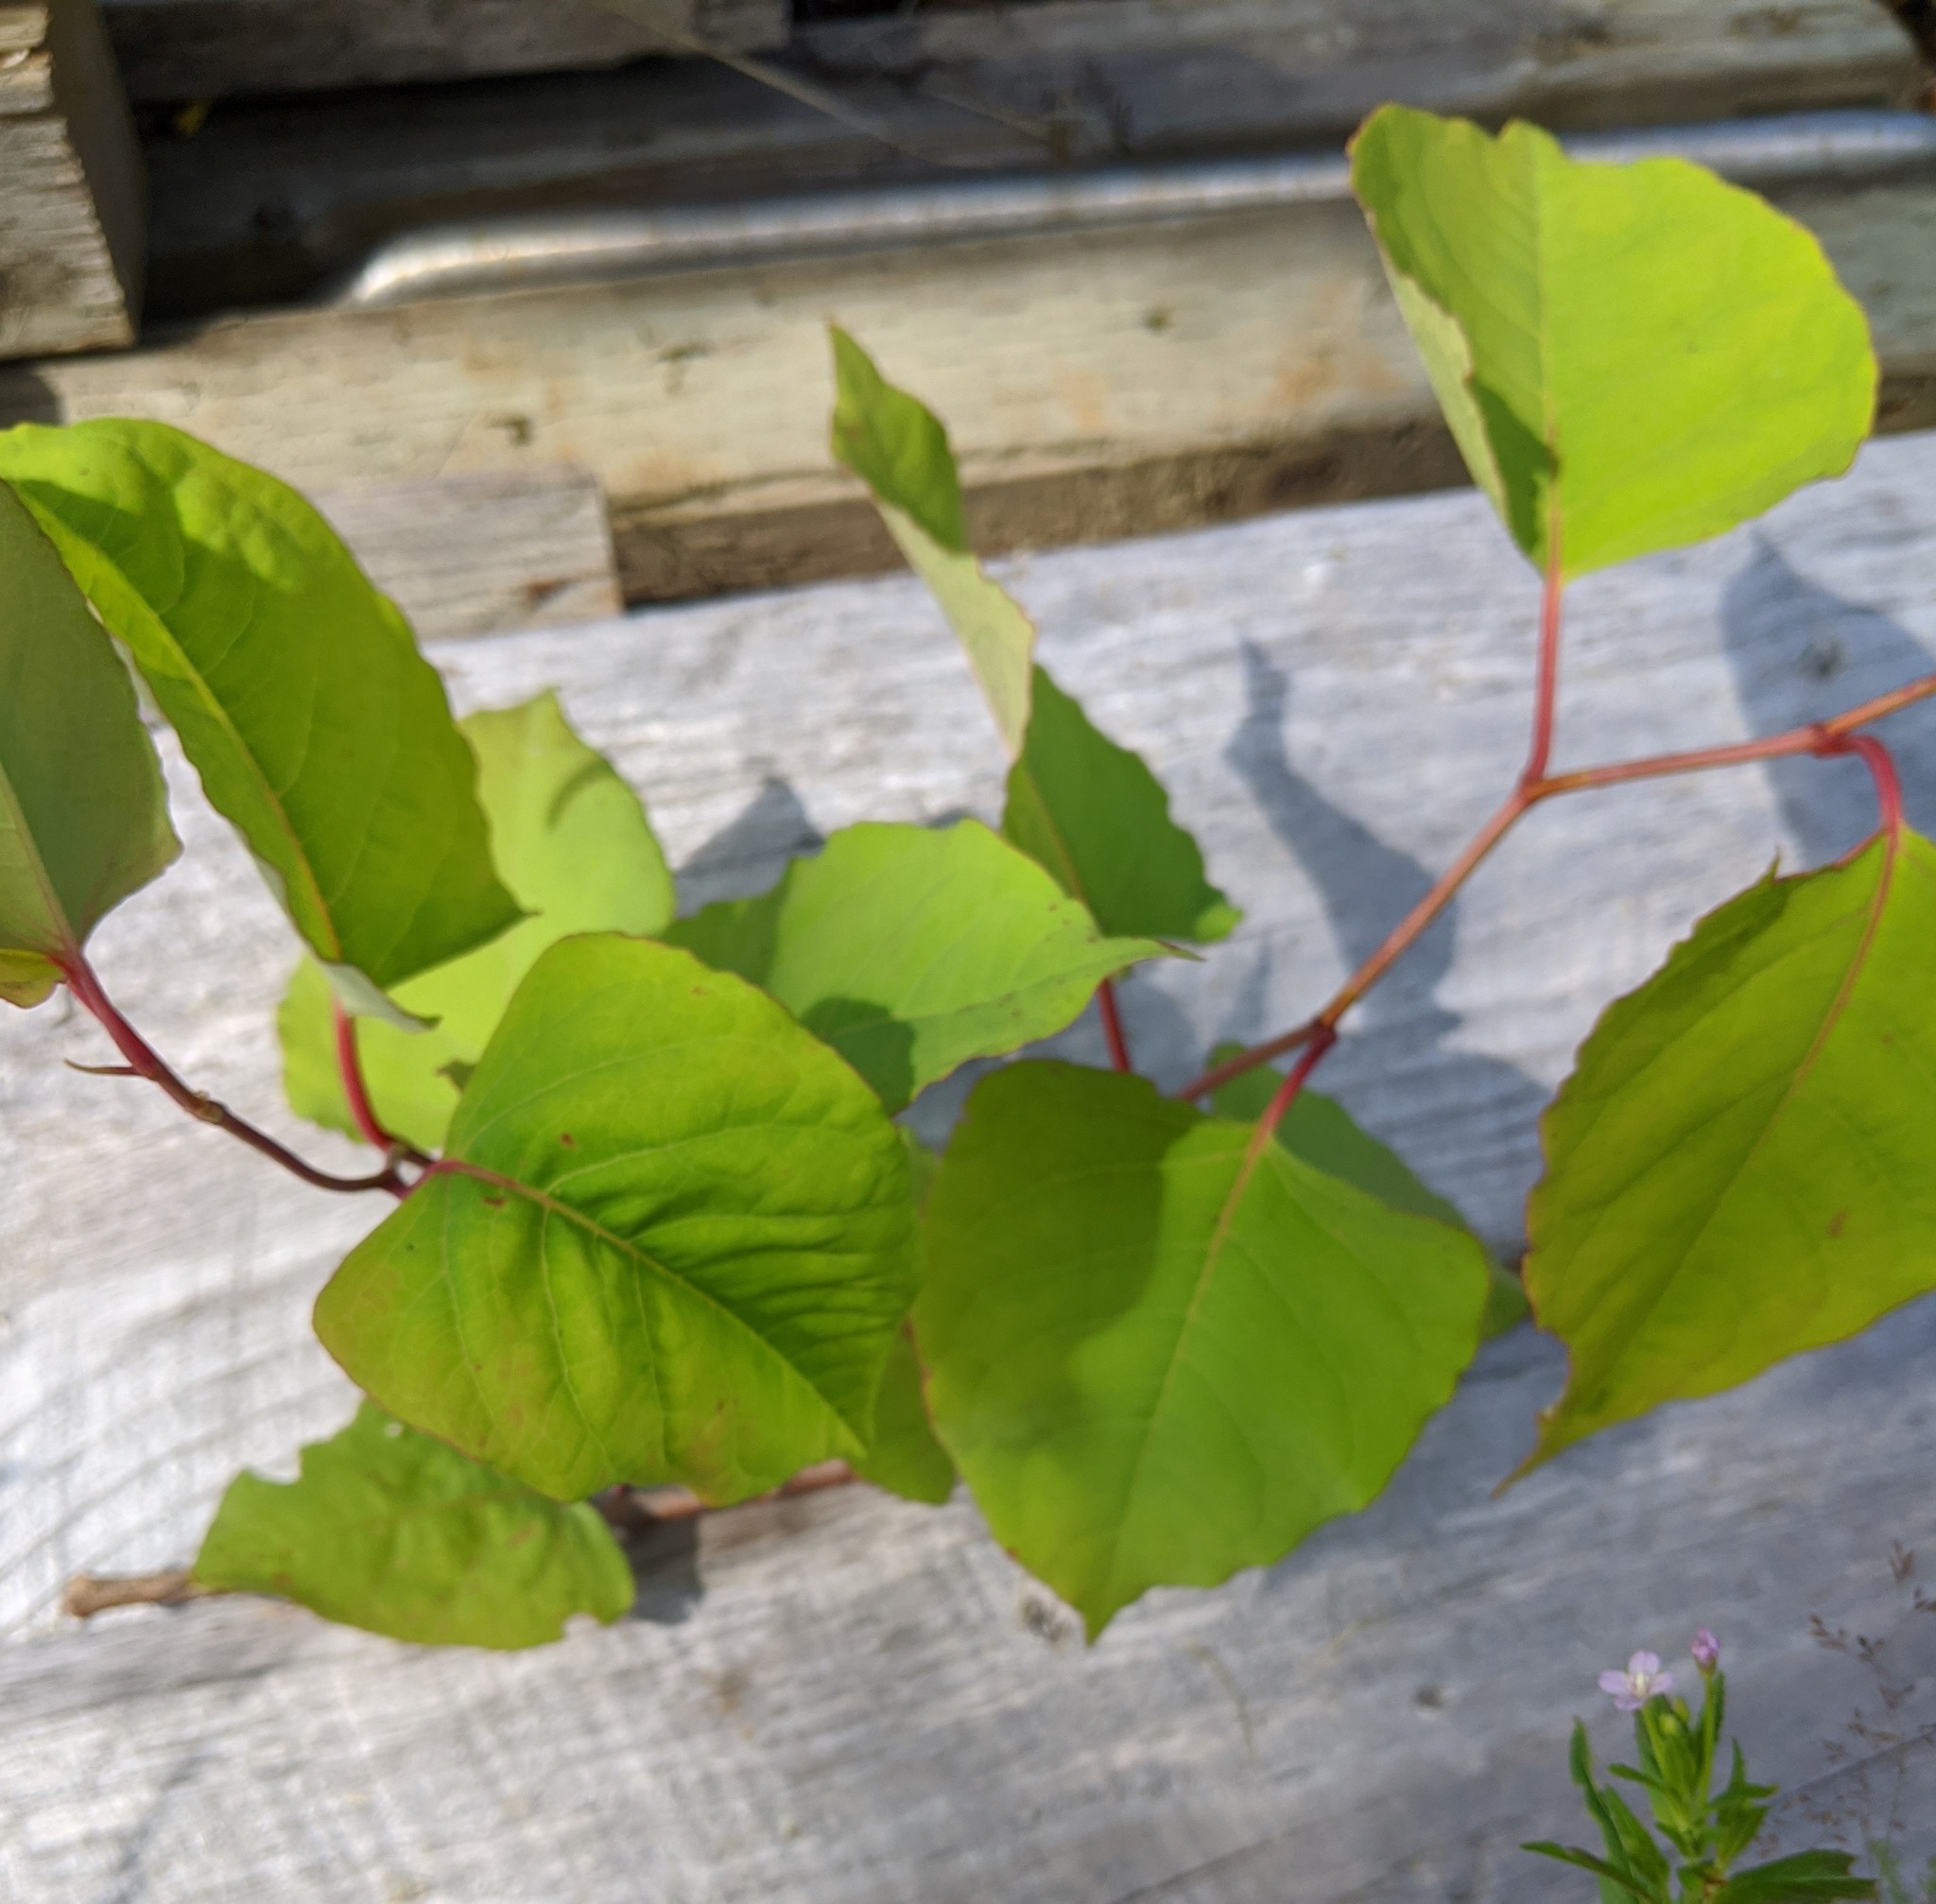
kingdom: Plantae
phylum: Tracheophyta
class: Magnoliopsida
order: Caryophyllales
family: Polygonaceae
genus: Reynoutria
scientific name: Reynoutria japonica
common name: Japanese knotweed
